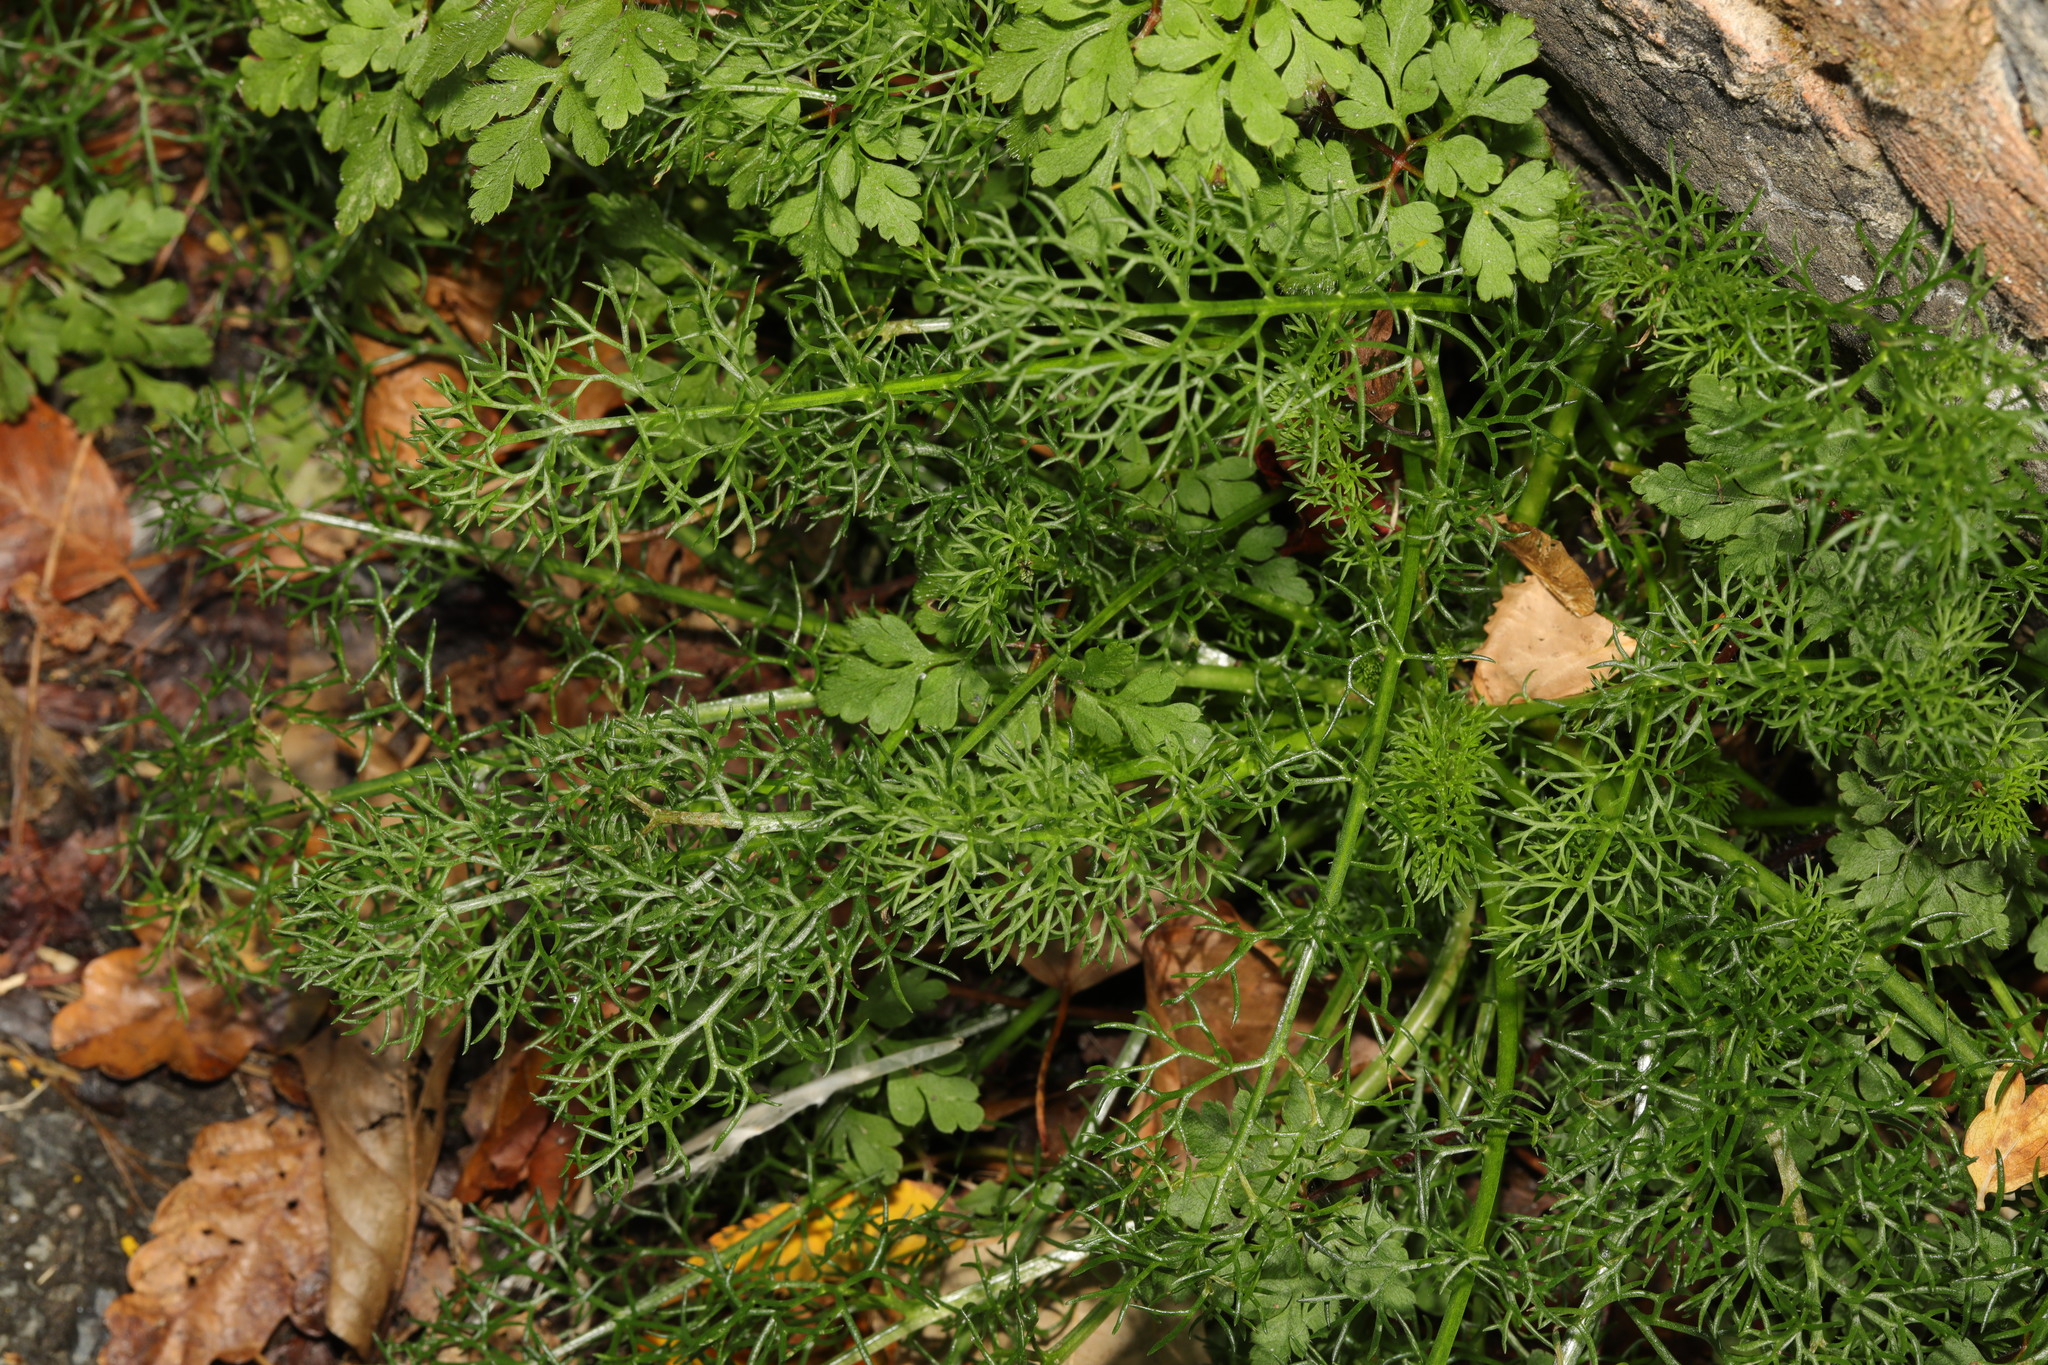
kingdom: Plantae
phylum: Tracheophyta
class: Magnoliopsida
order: Asterales
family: Asteraceae
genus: Tripleurospermum
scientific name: Tripleurospermum inodorum
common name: Scentless mayweed
